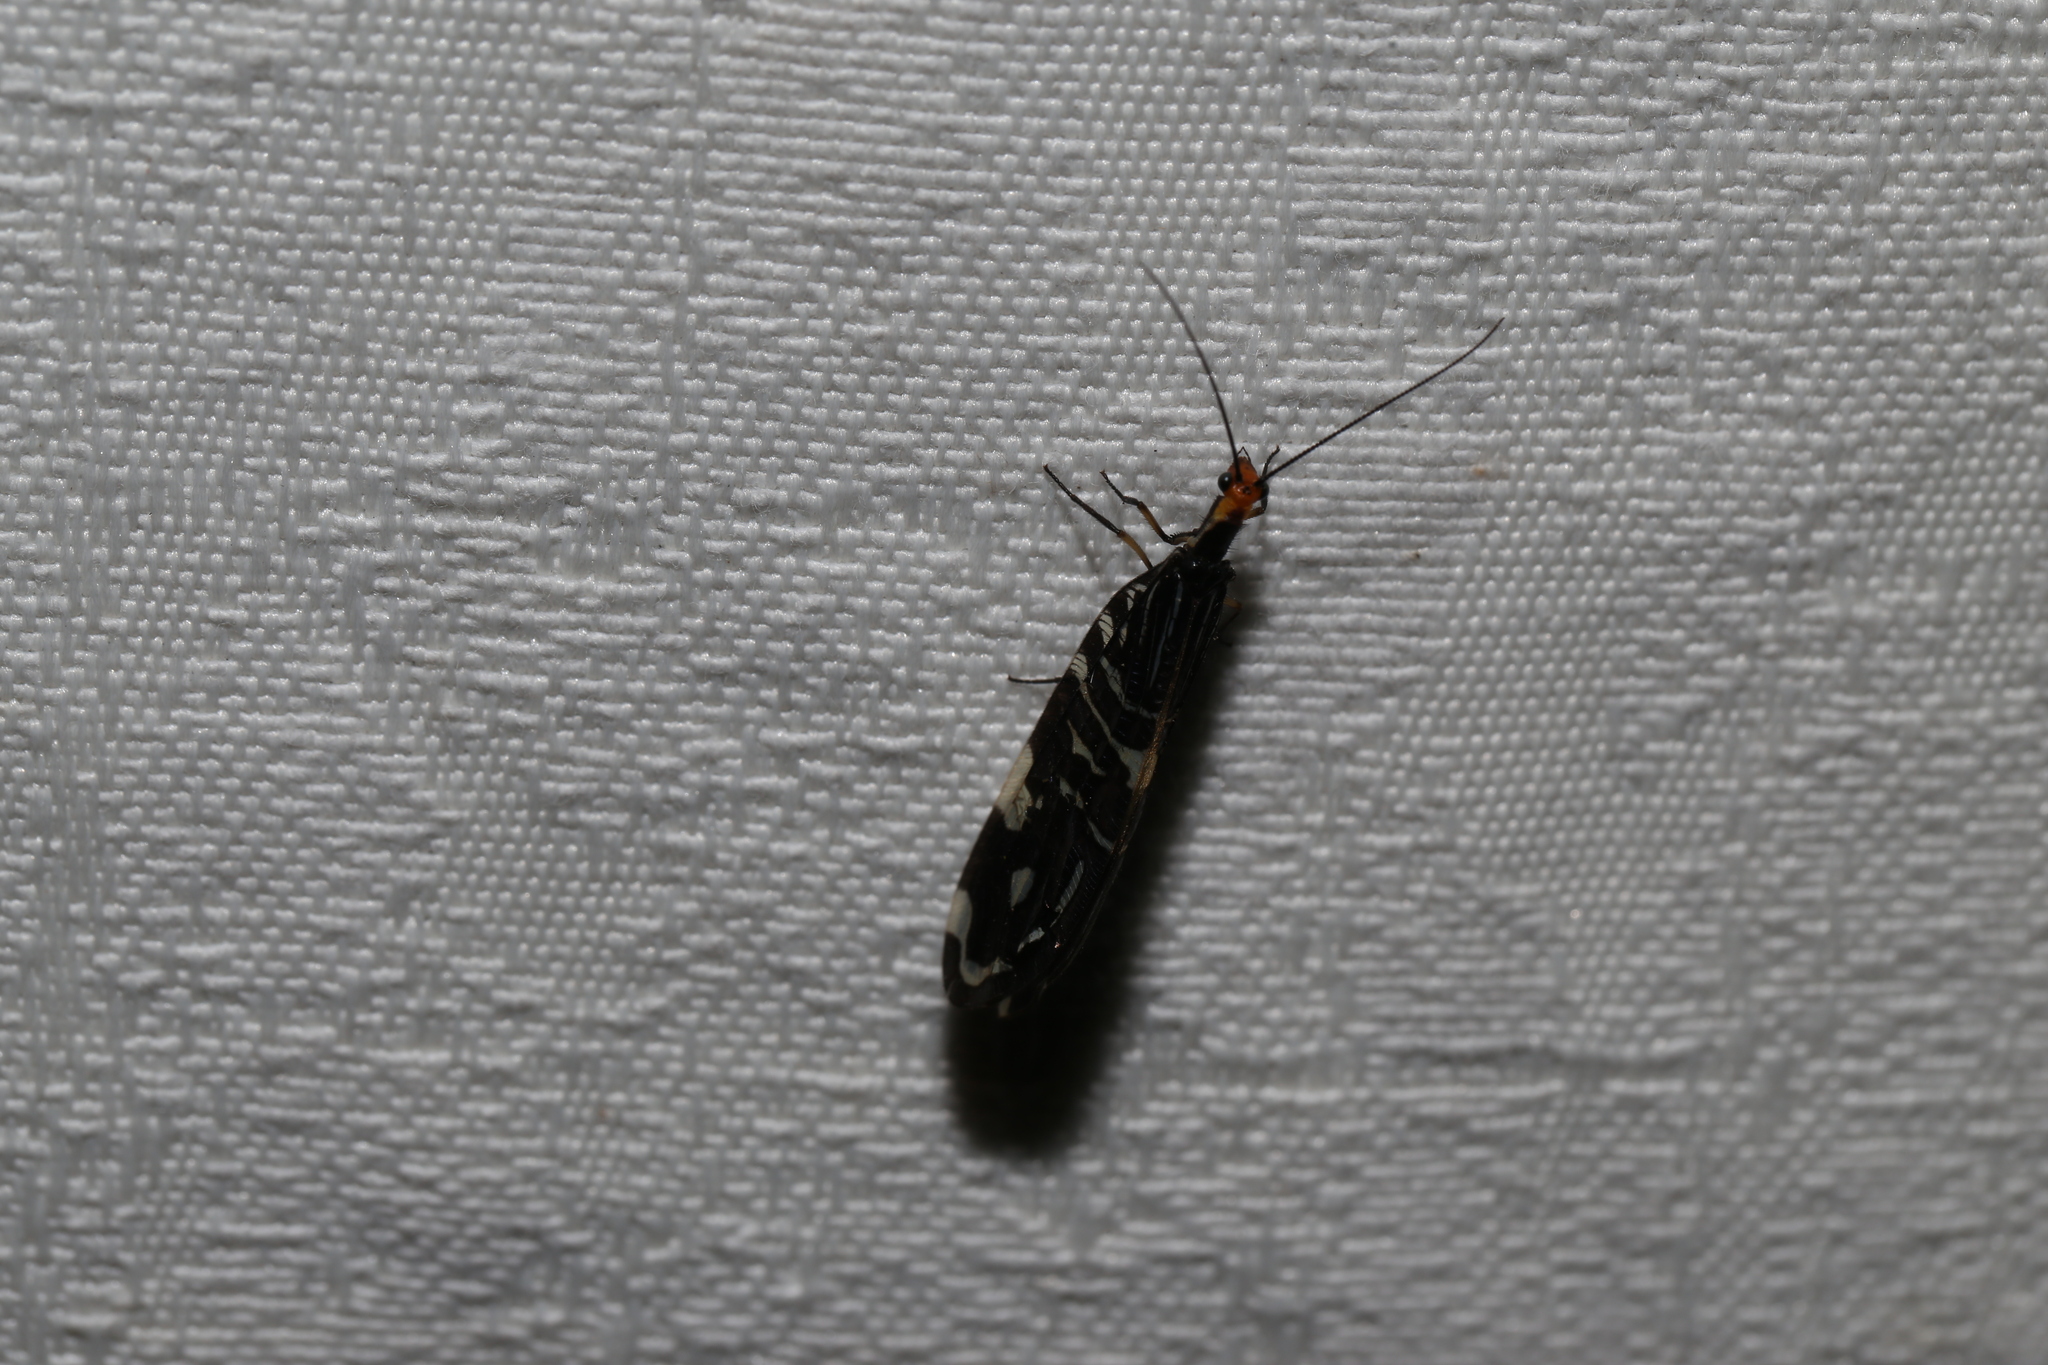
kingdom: Animalia
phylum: Arthropoda
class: Insecta
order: Neuroptera
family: Osmylidae
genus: Porismus
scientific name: Porismus strigatus
